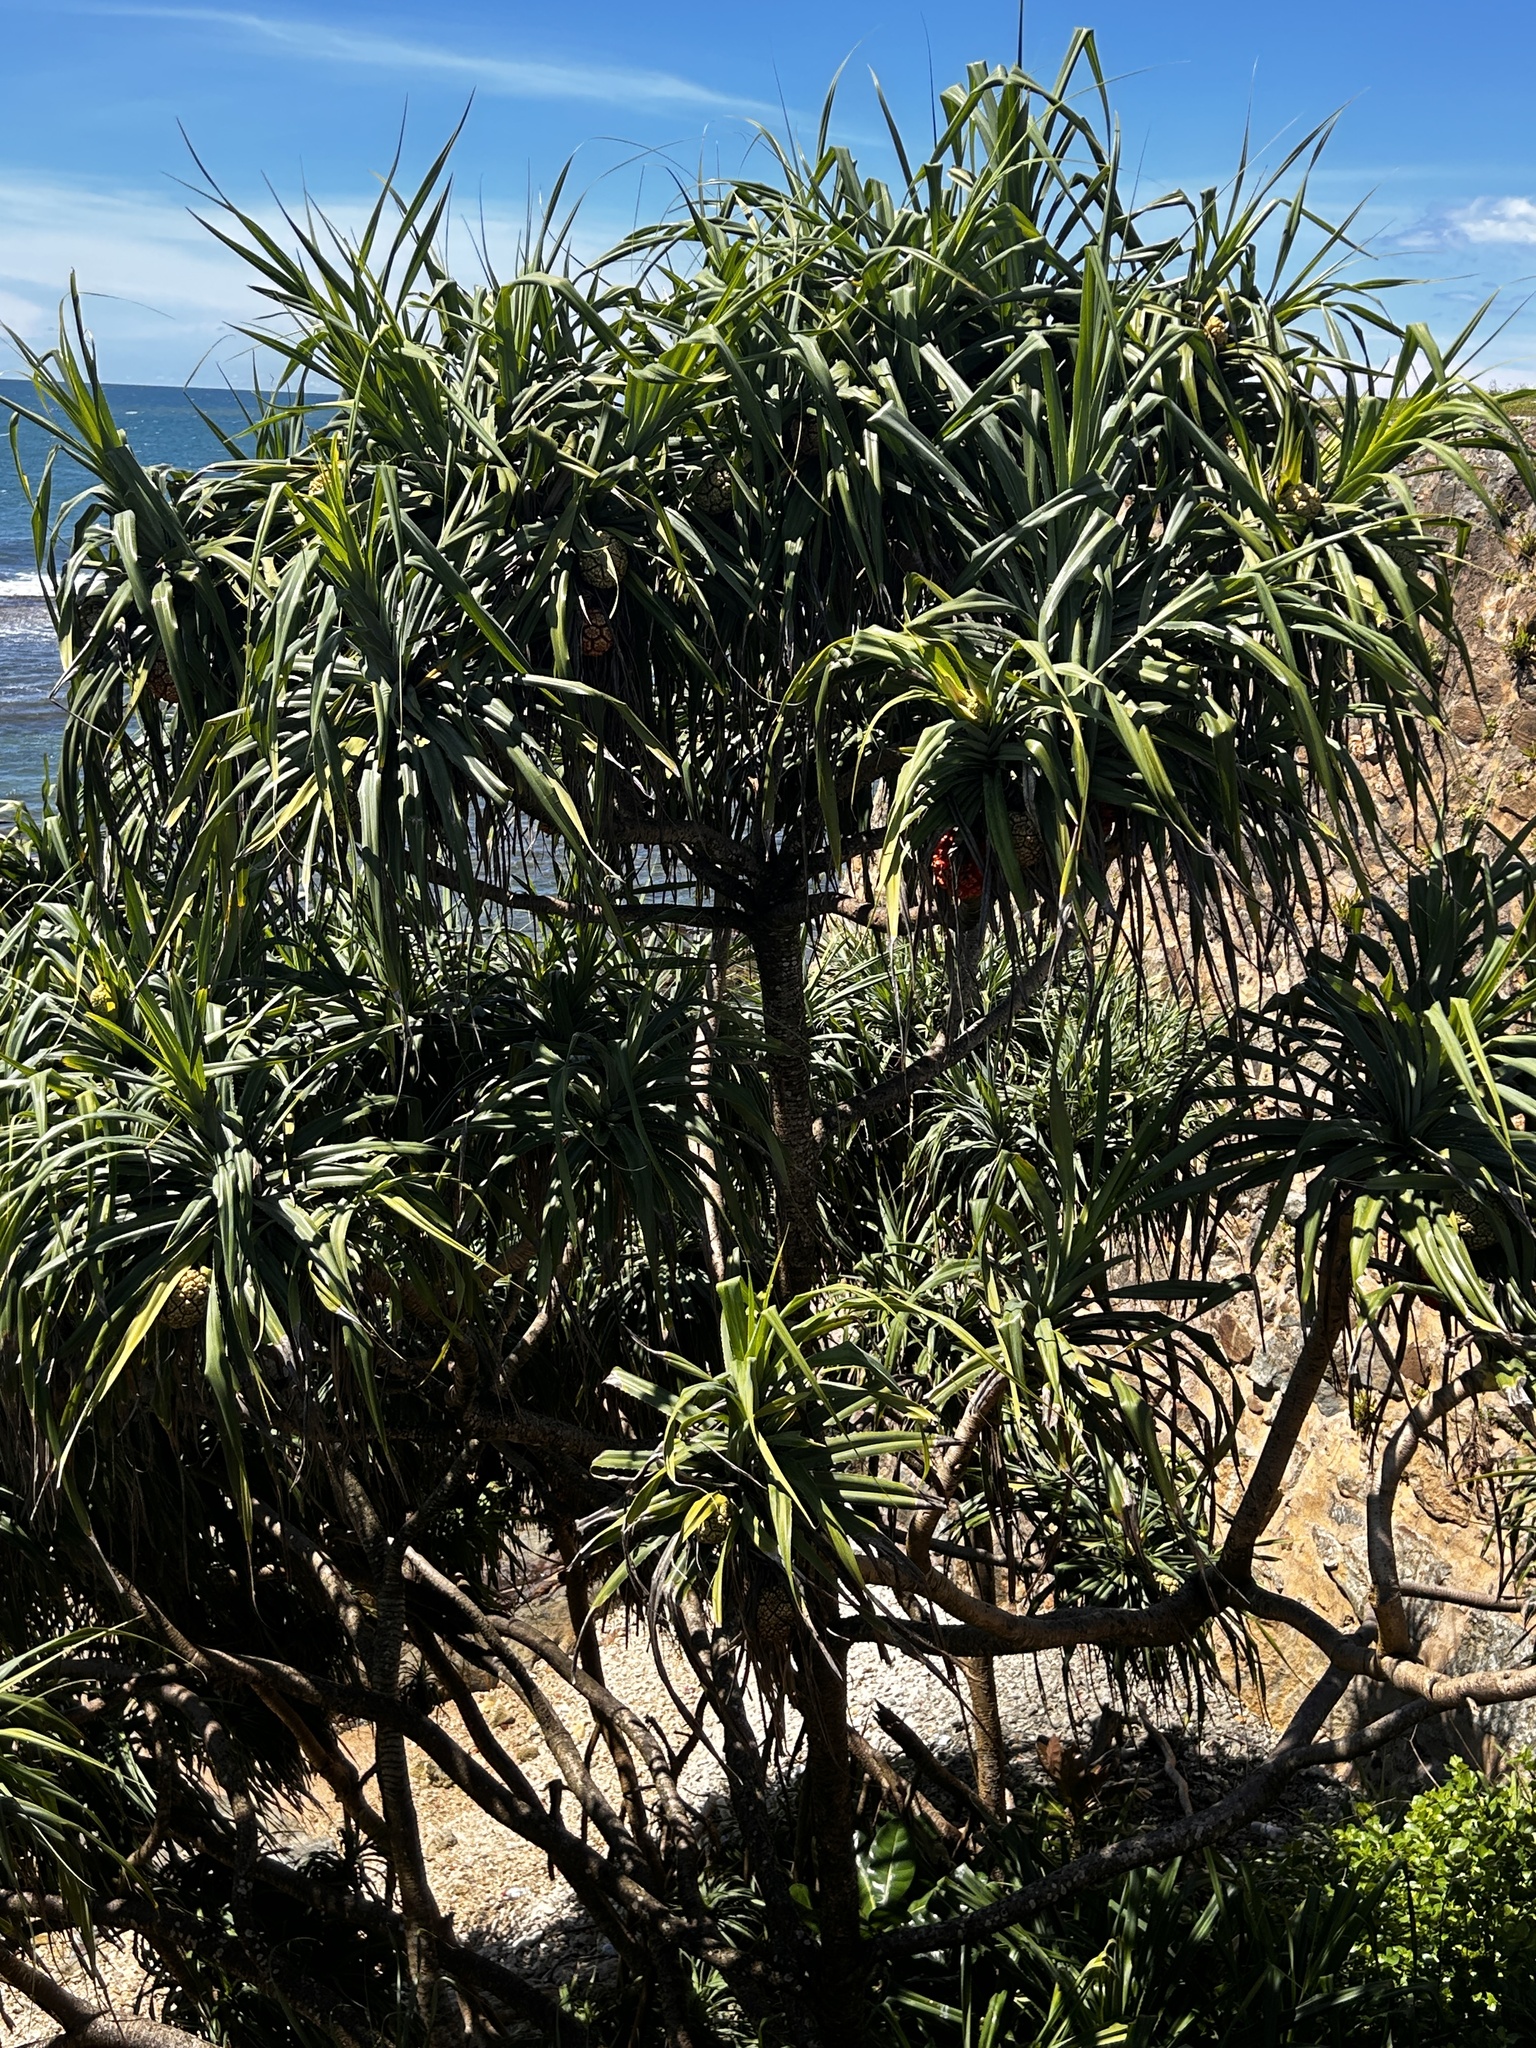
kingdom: Plantae
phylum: Tracheophyta
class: Liliopsida
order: Pandanales
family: Pandanaceae
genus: Pandanus
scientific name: Pandanus odorifer
